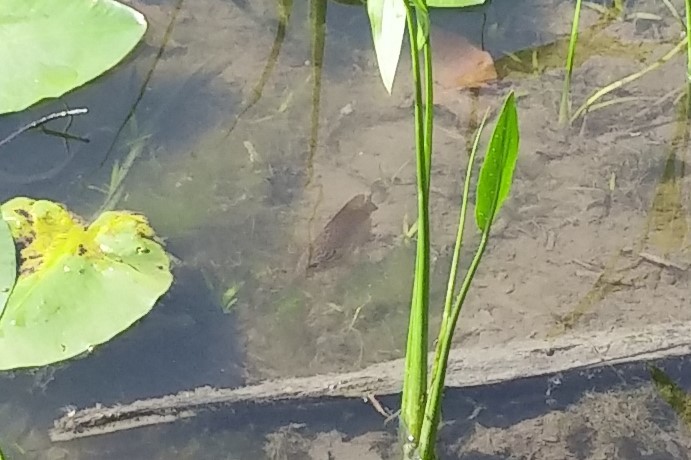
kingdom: Animalia
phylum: Chordata
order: Perciformes
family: Centrarchidae
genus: Lepomis
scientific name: Lepomis gibbosus
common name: Pumpkinseed
